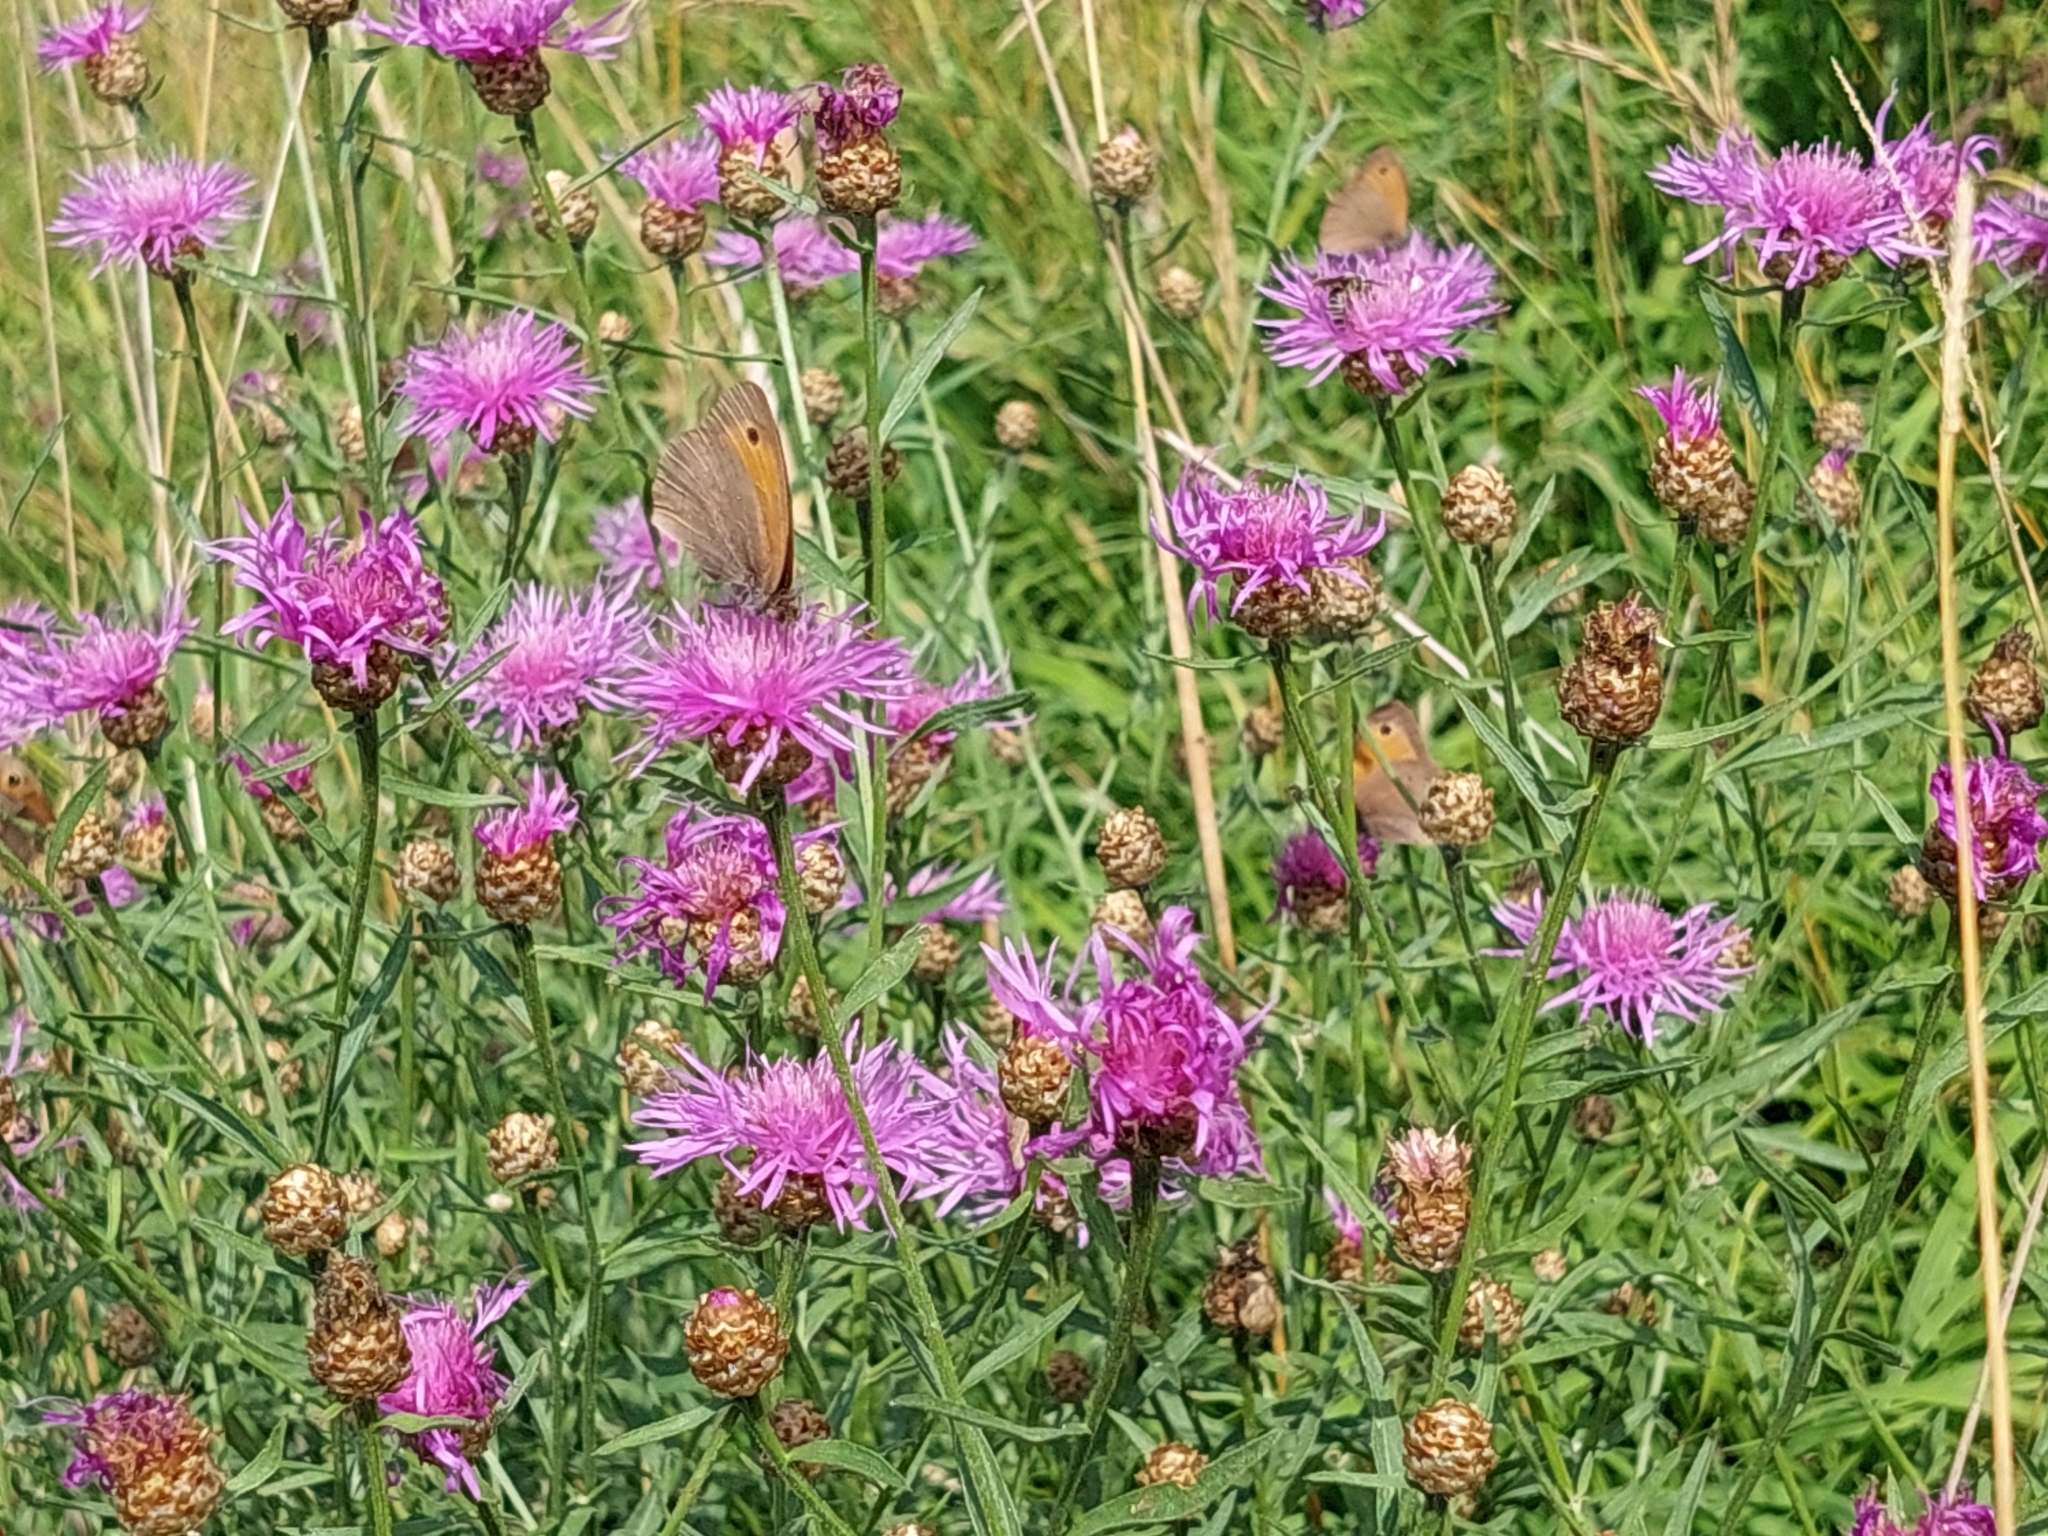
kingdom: Animalia
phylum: Arthropoda
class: Insecta
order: Lepidoptera
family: Nymphalidae
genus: Maniola
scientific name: Maniola jurtina
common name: Meadow brown
